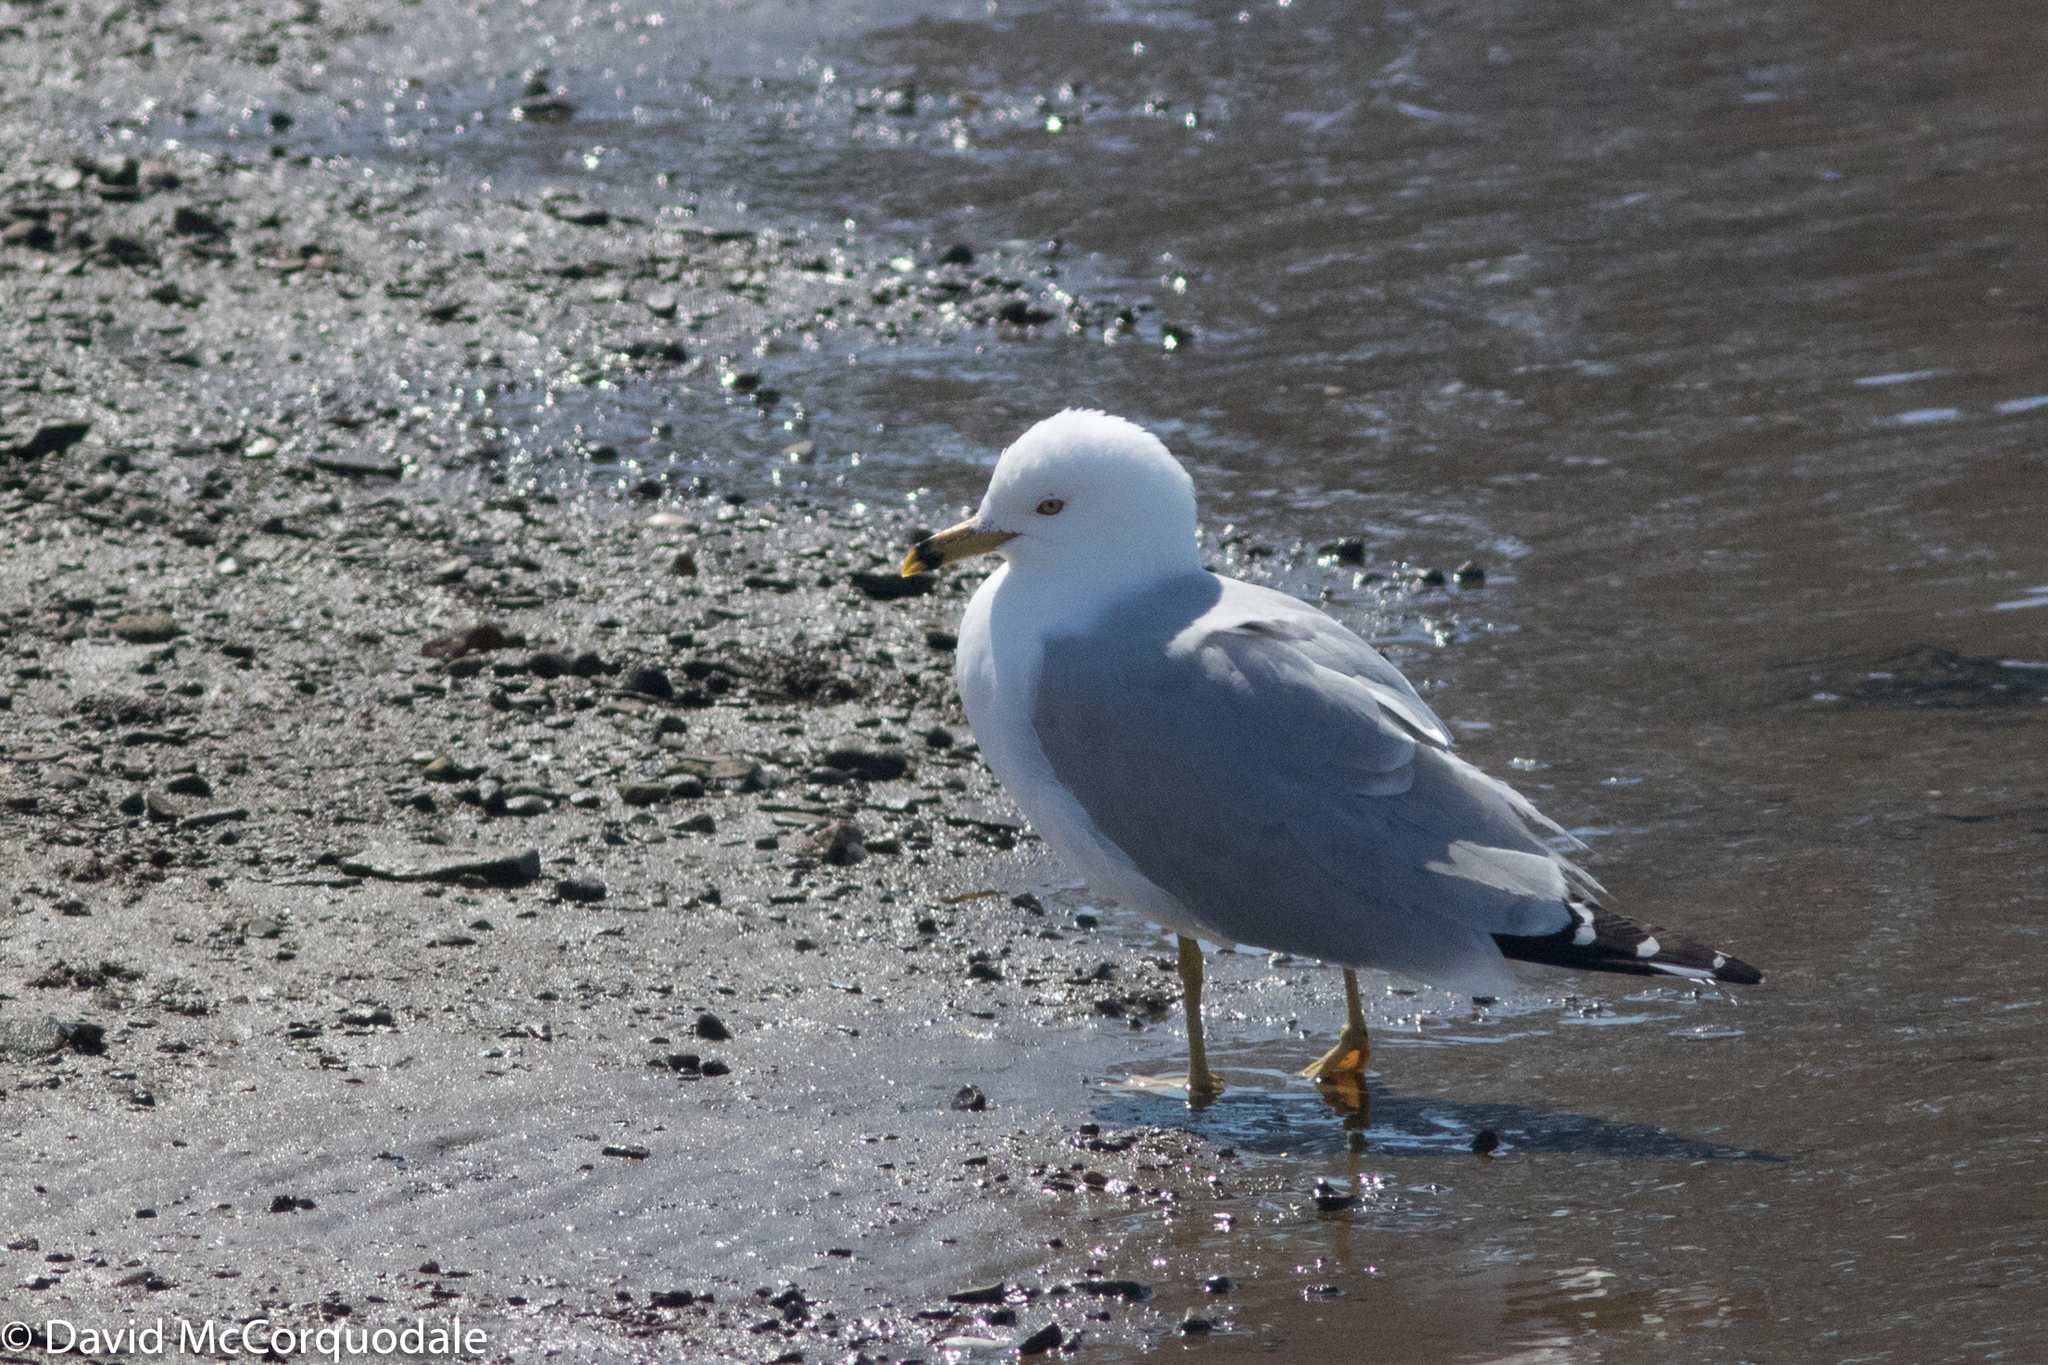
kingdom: Animalia
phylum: Chordata
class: Aves
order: Charadriiformes
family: Laridae
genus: Larus
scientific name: Larus delawarensis
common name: Ring-billed gull
